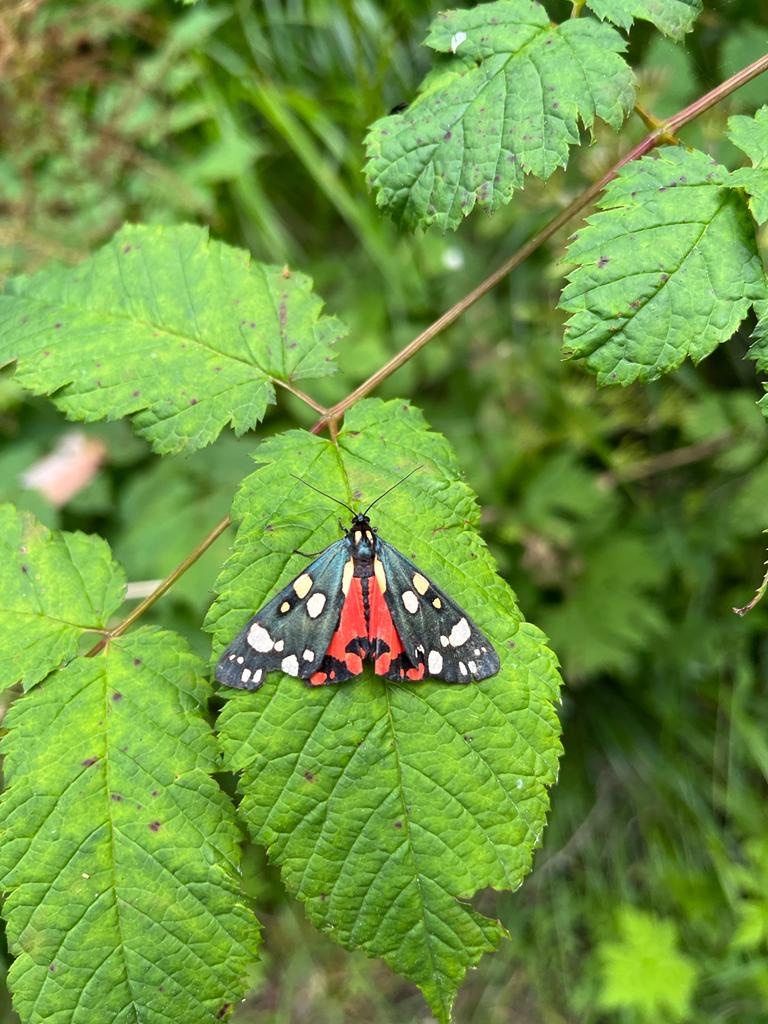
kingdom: Animalia
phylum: Arthropoda
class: Insecta
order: Lepidoptera
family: Erebidae
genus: Callimorpha
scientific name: Callimorpha dominula
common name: Scarlet tiger
